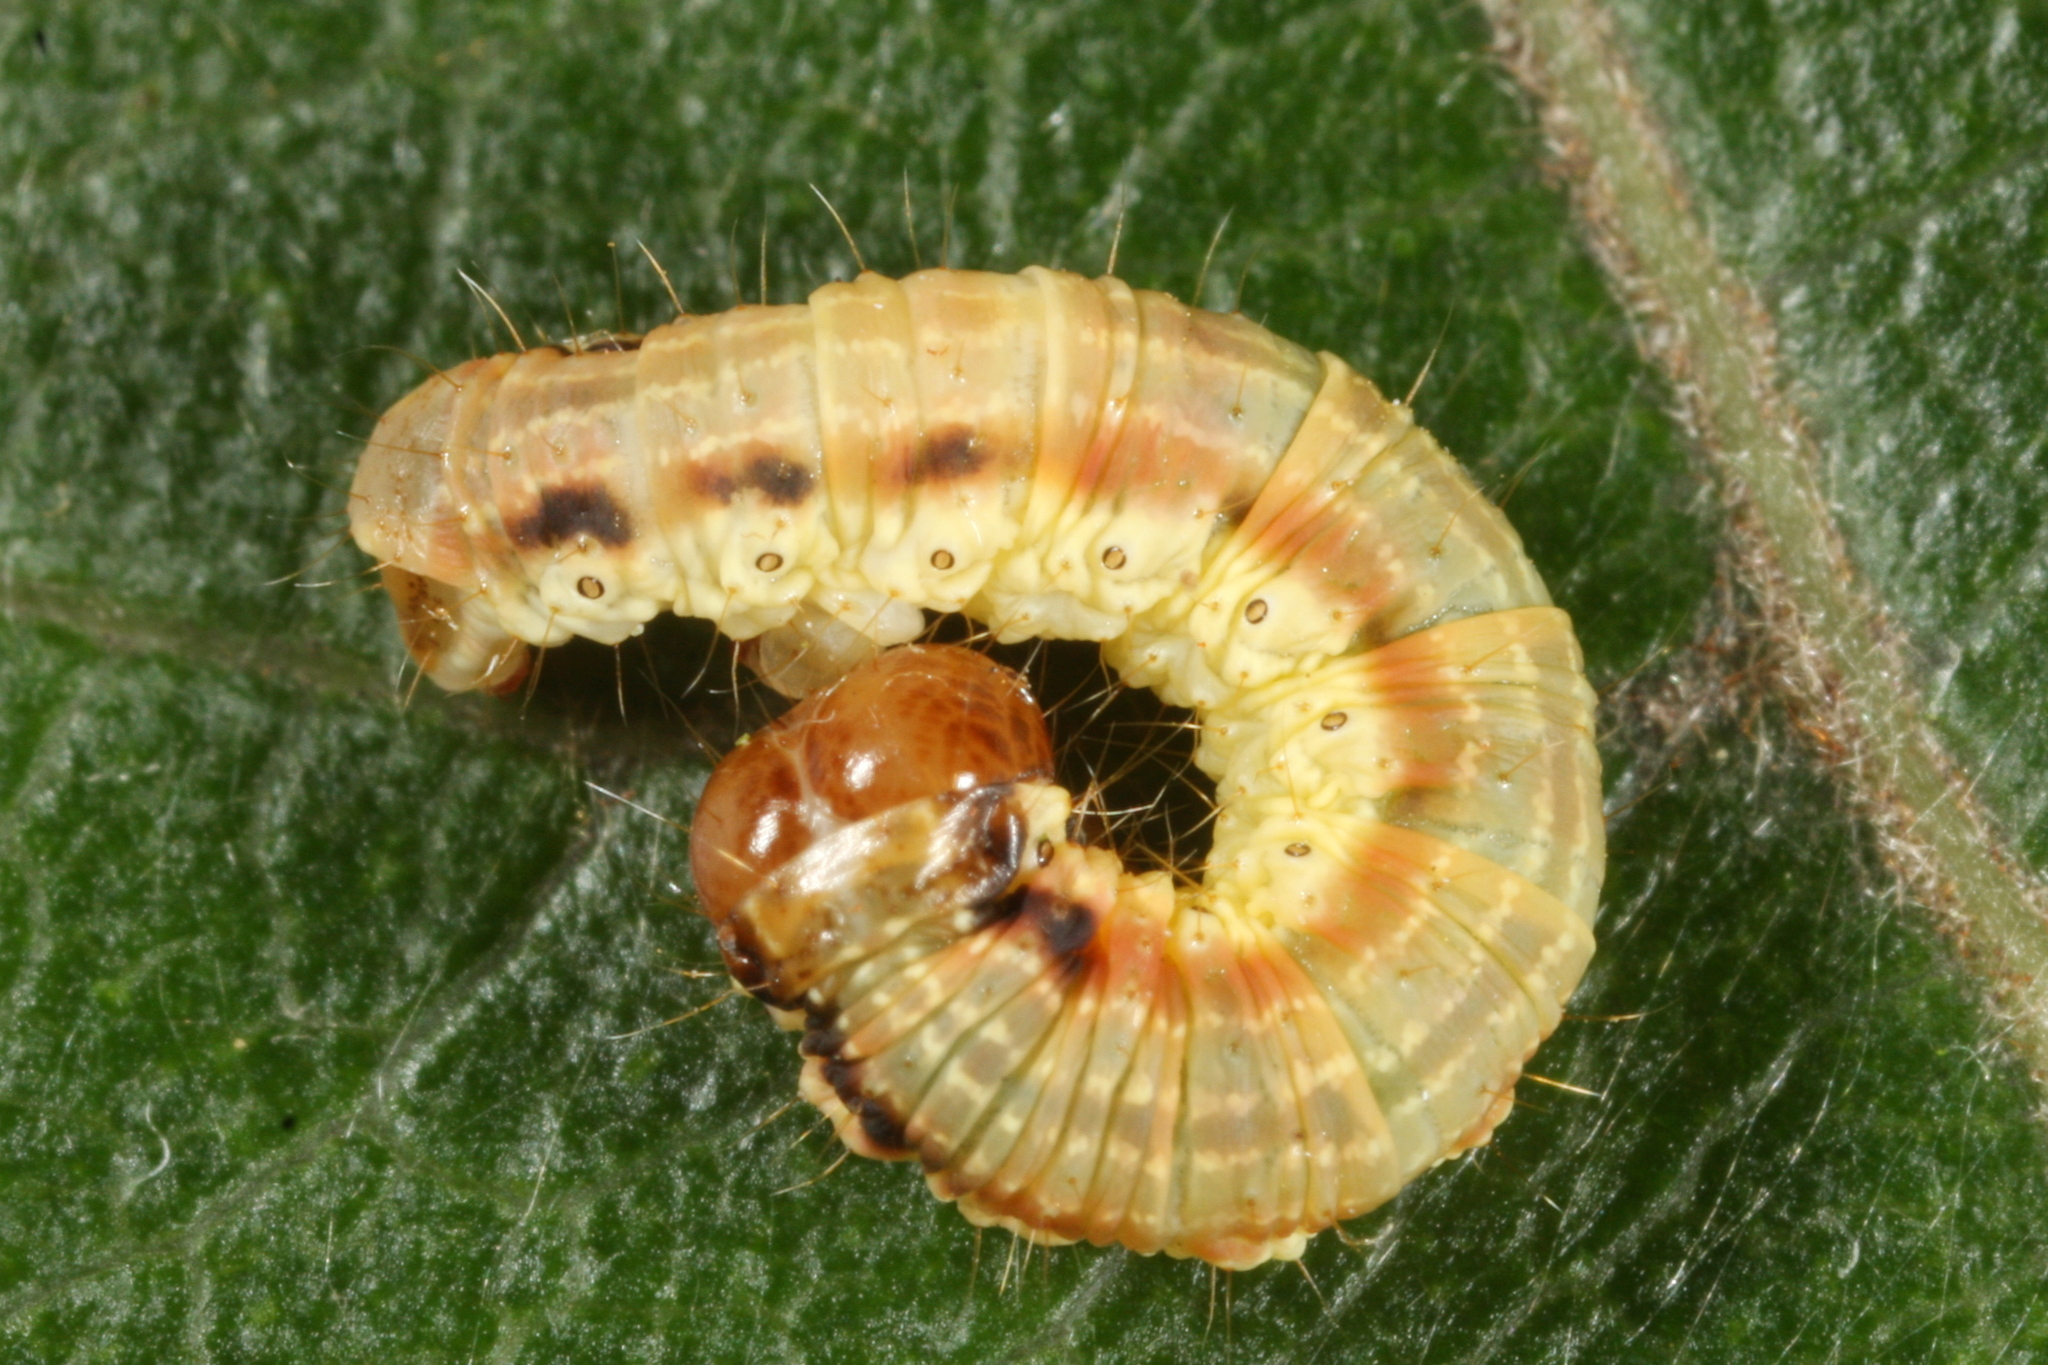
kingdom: Animalia
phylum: Arthropoda
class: Insecta
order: Lepidoptera
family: Geometridae
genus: Rheumaptera
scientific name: Rheumaptera undulata
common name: Scallop shell
